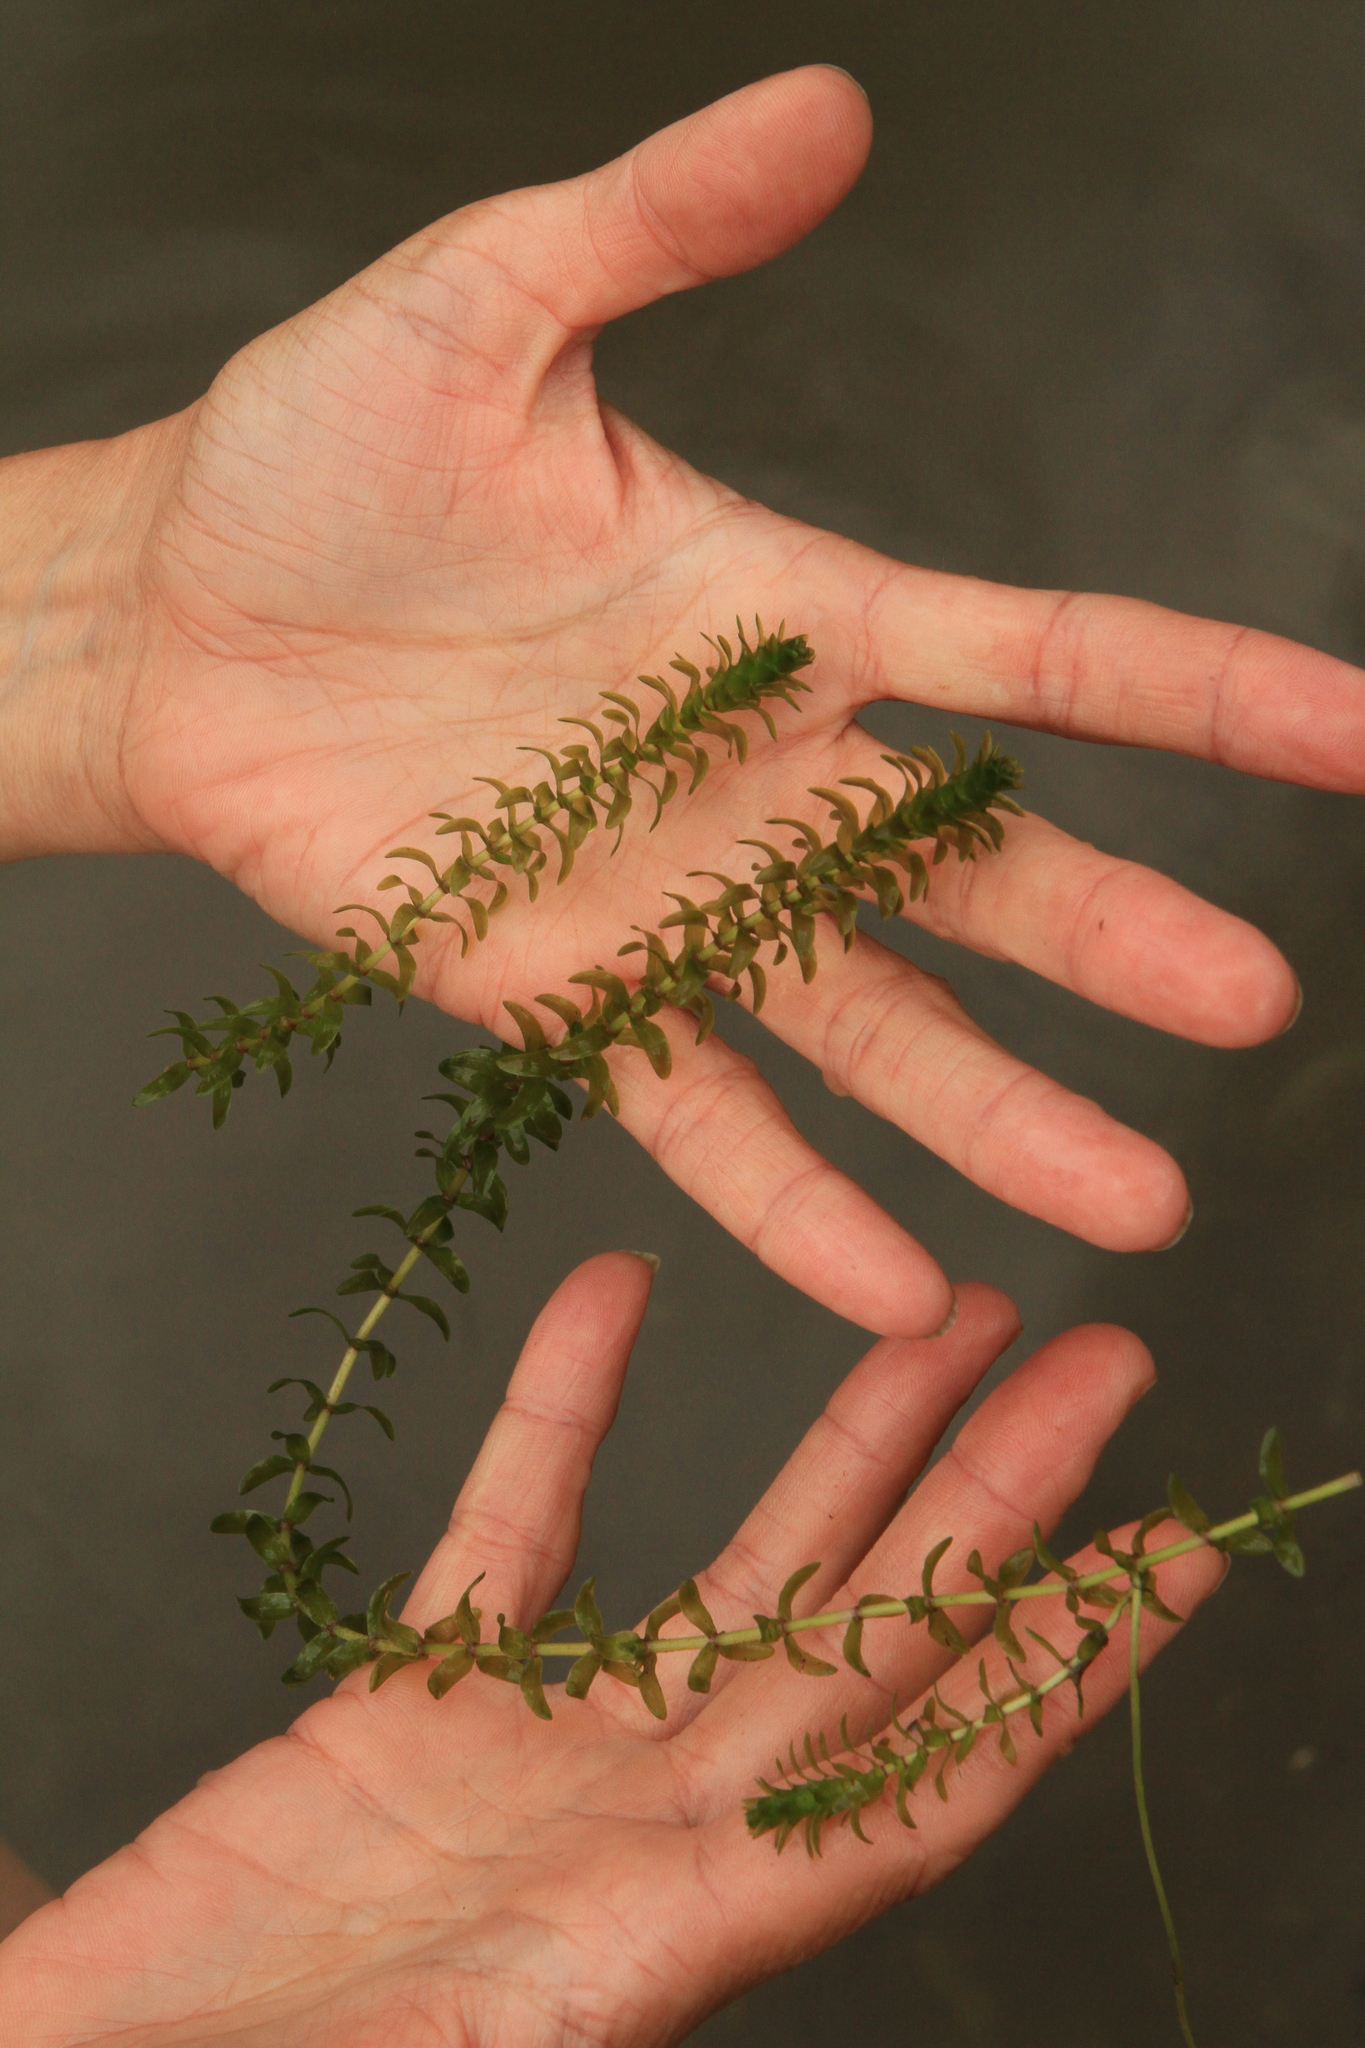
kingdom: Plantae
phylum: Tracheophyta
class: Liliopsida
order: Alismatales
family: Hydrocharitaceae
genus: Elodea
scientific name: Elodea canadensis
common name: Canadian waterweed
